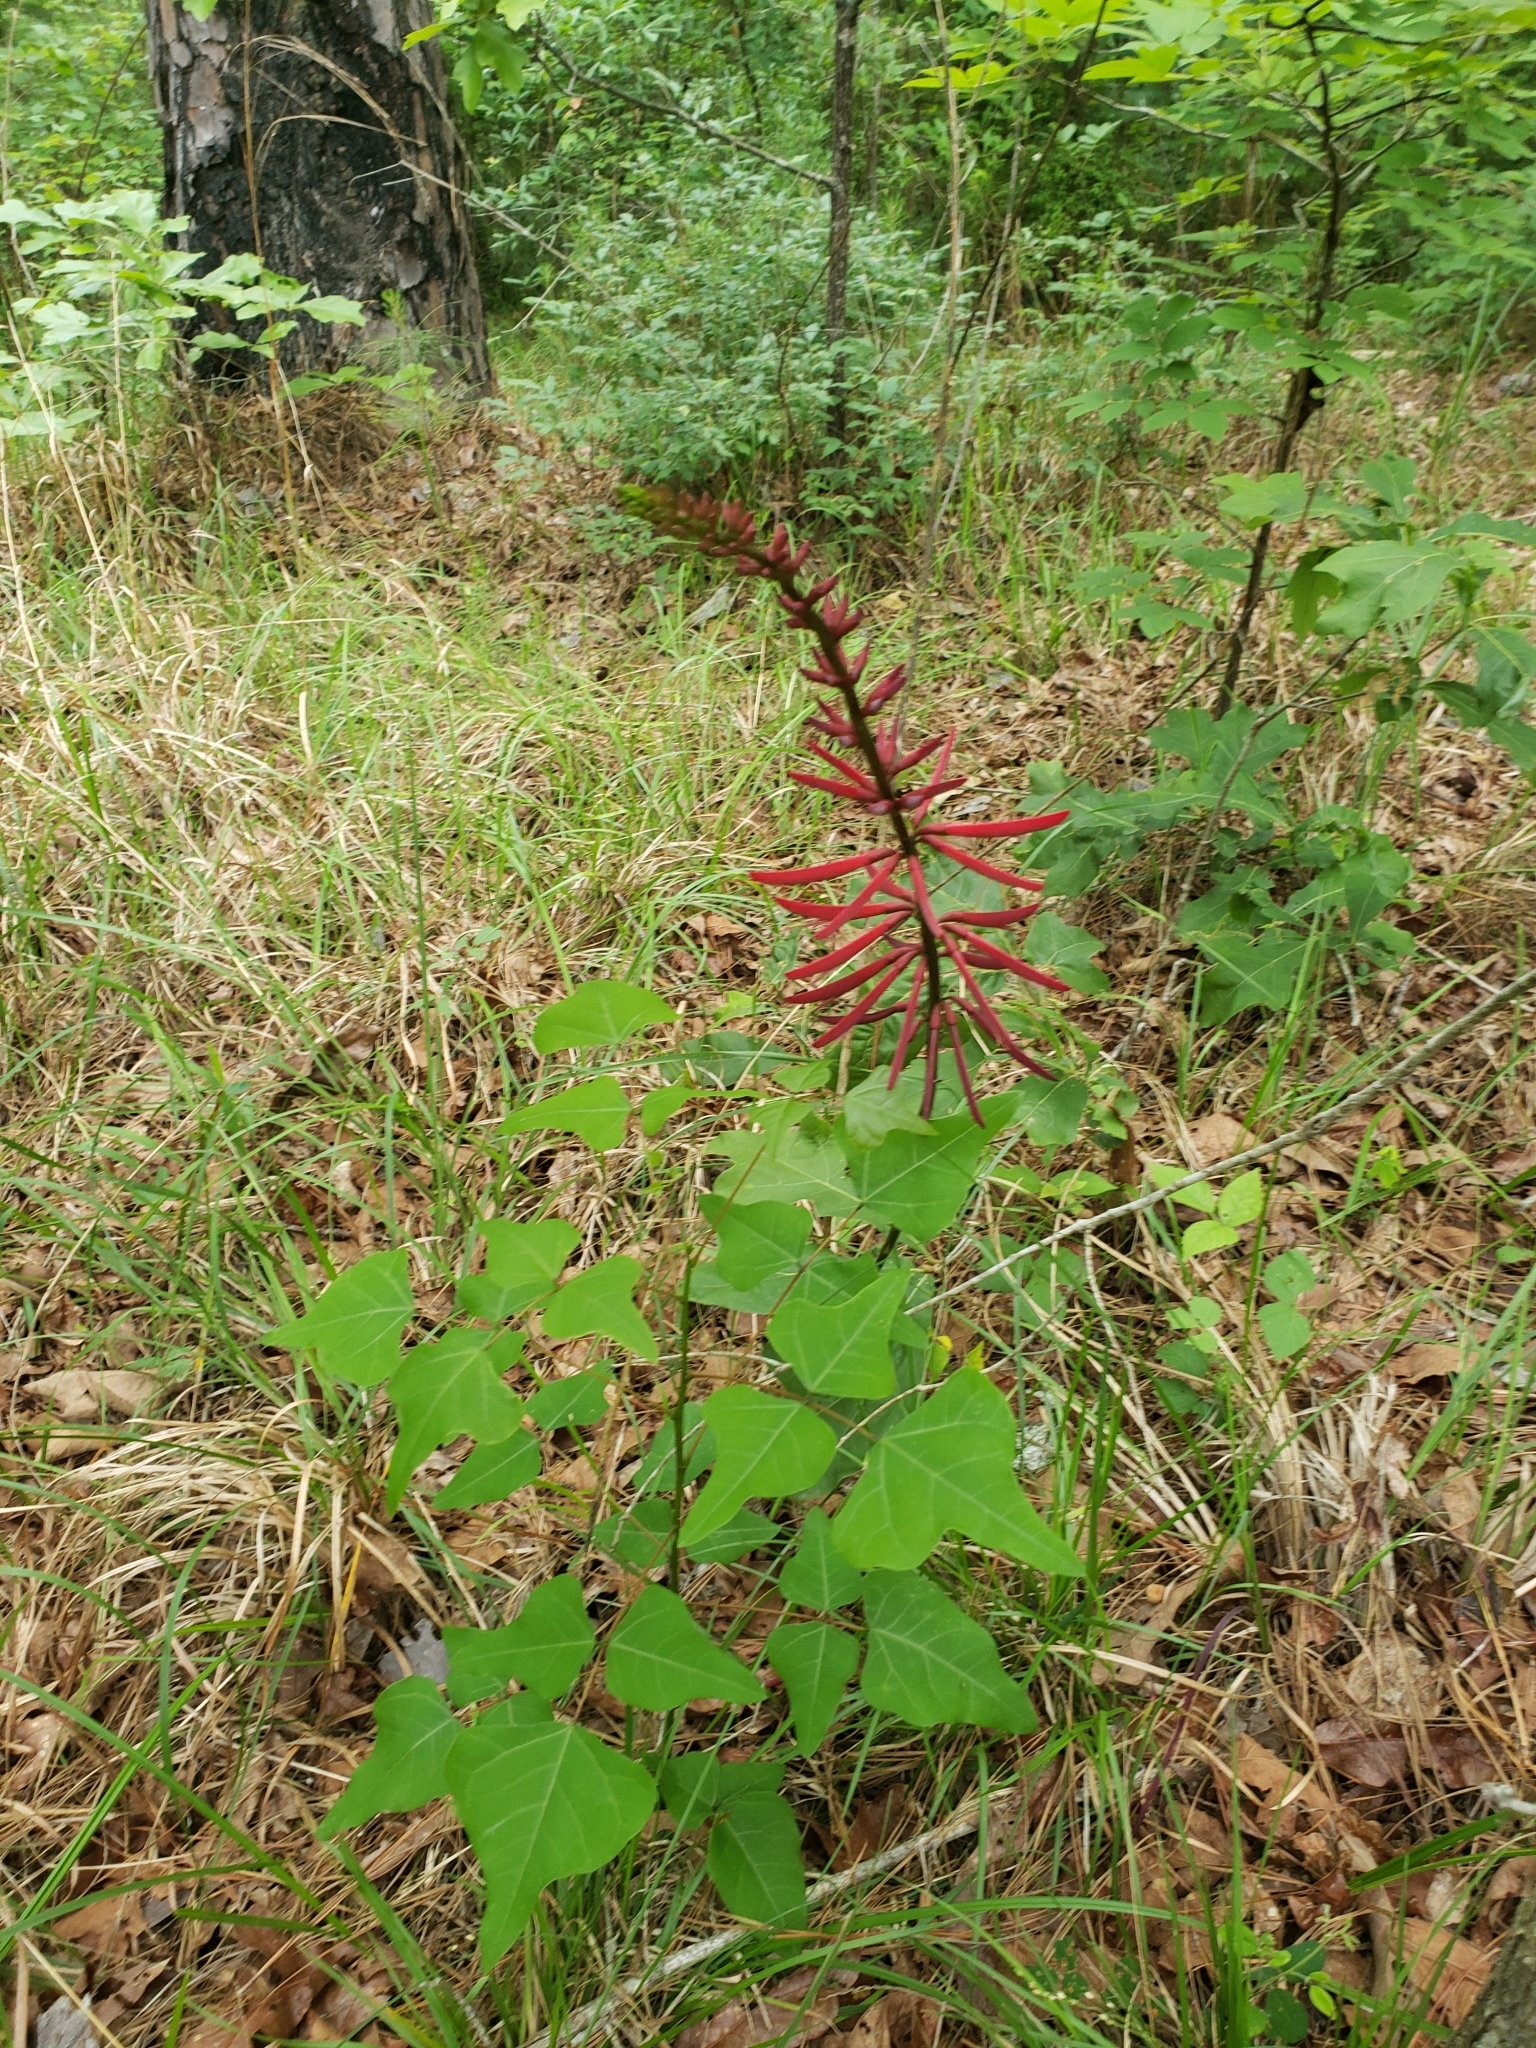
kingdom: Plantae
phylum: Tracheophyta
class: Magnoliopsida
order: Fabales
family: Fabaceae
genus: Erythrina
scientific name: Erythrina herbacea
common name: Coral-bean
